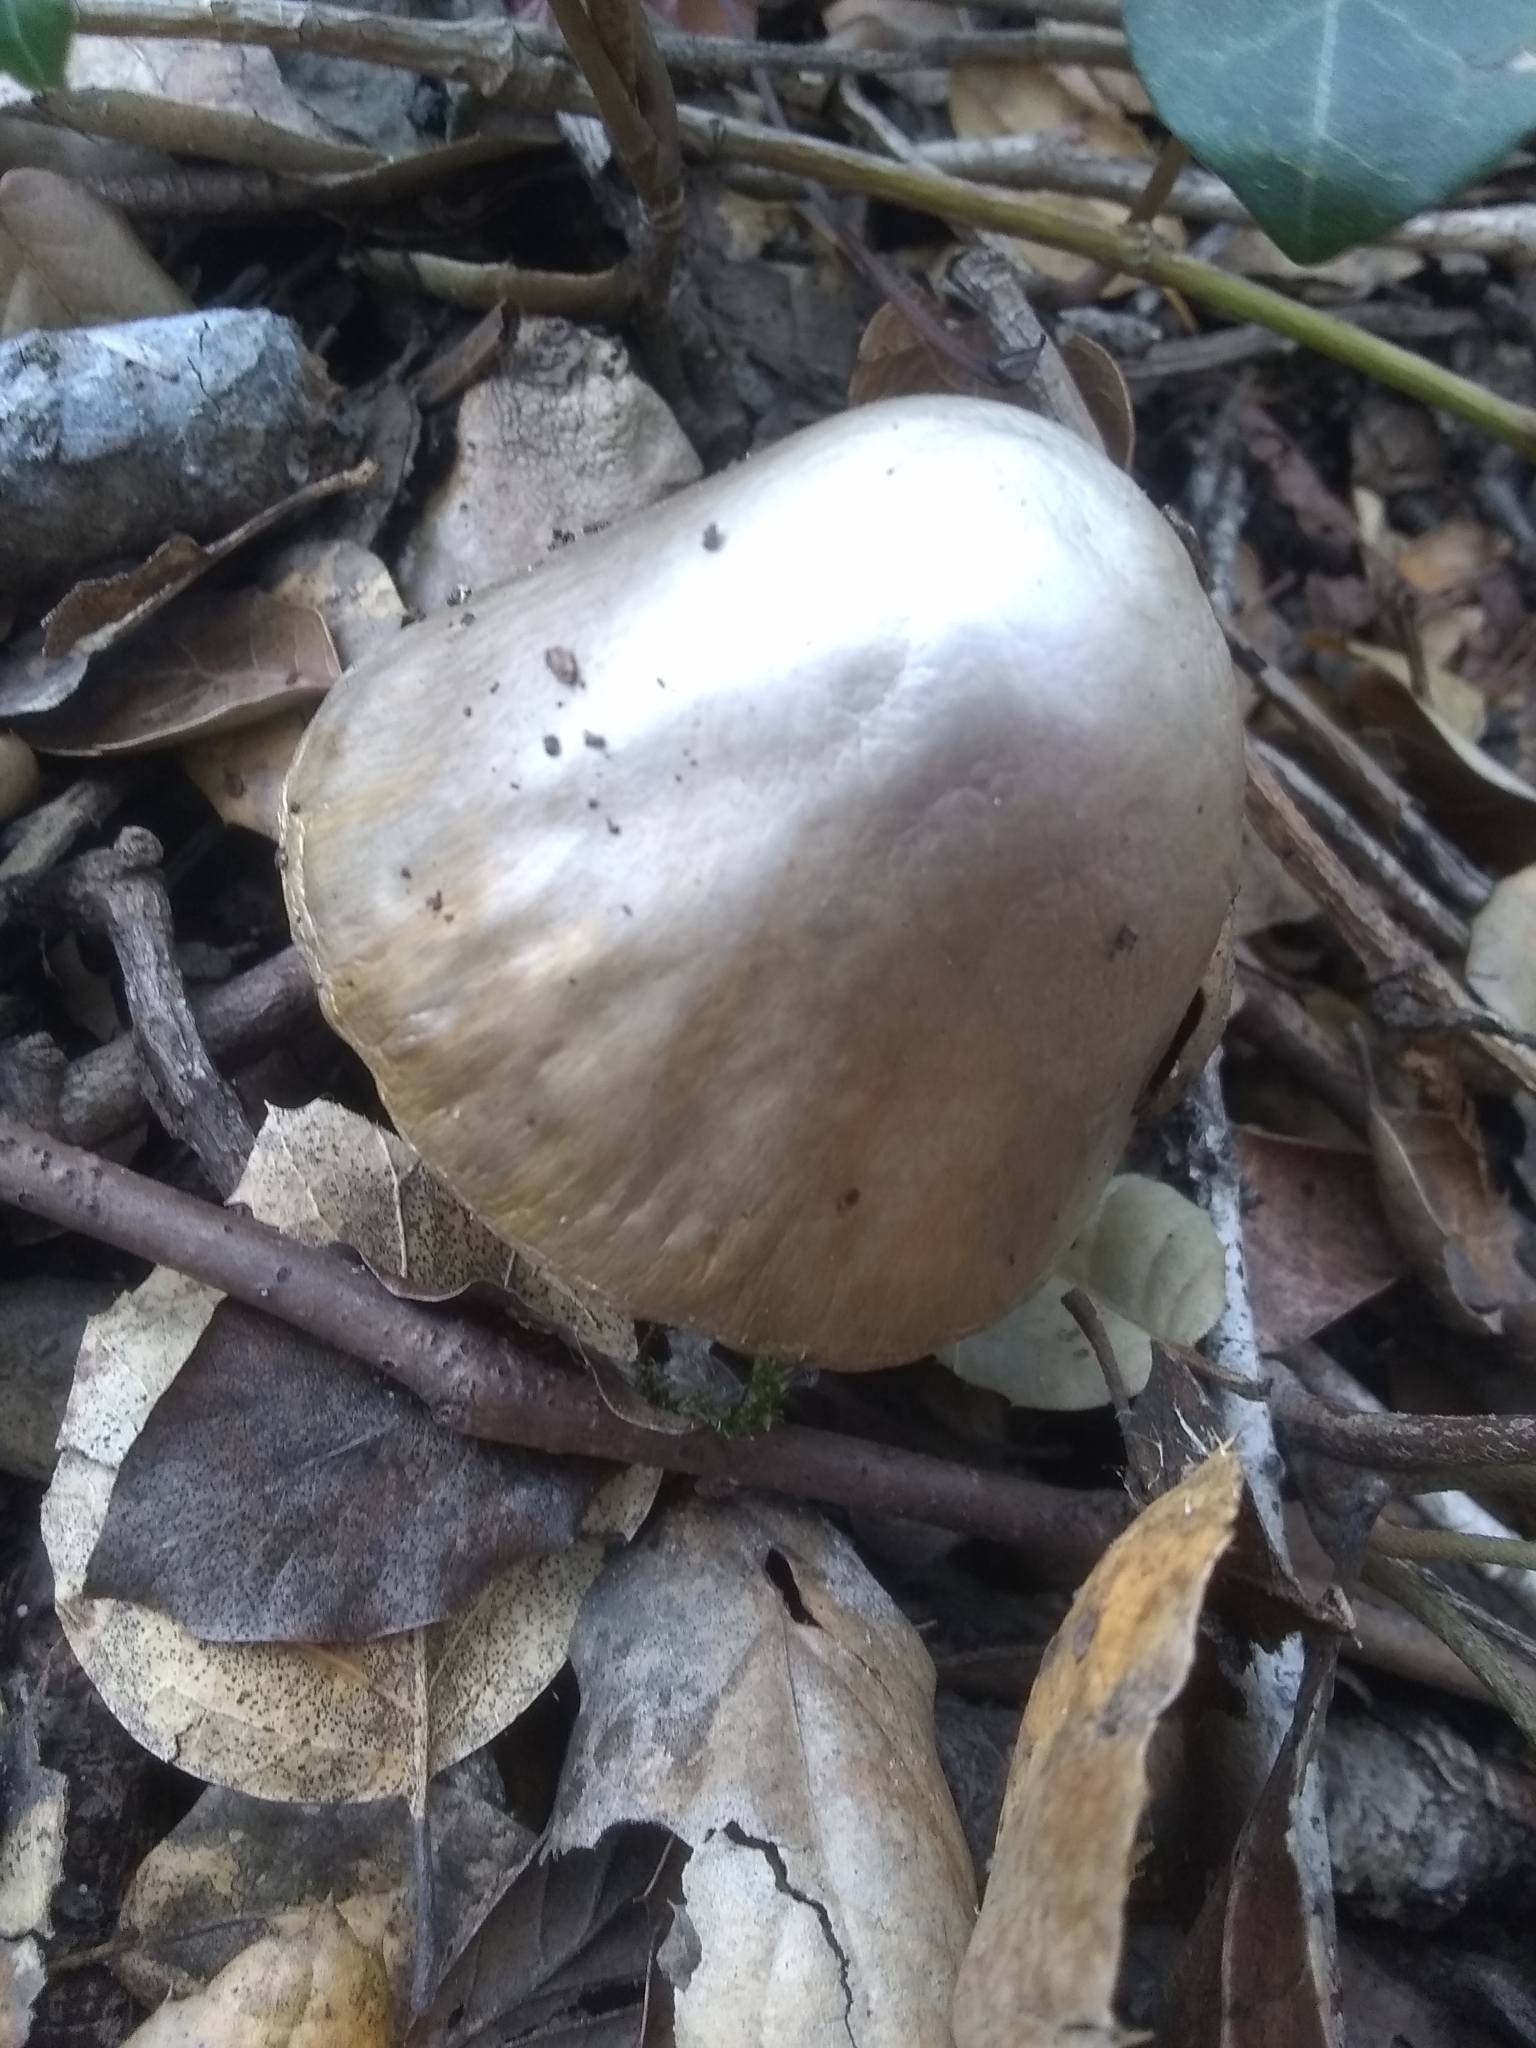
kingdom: Fungi
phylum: Basidiomycota
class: Agaricomycetes
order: Agaricales
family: Amanitaceae
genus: Amanita
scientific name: Amanita phalloides
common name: Death cap
